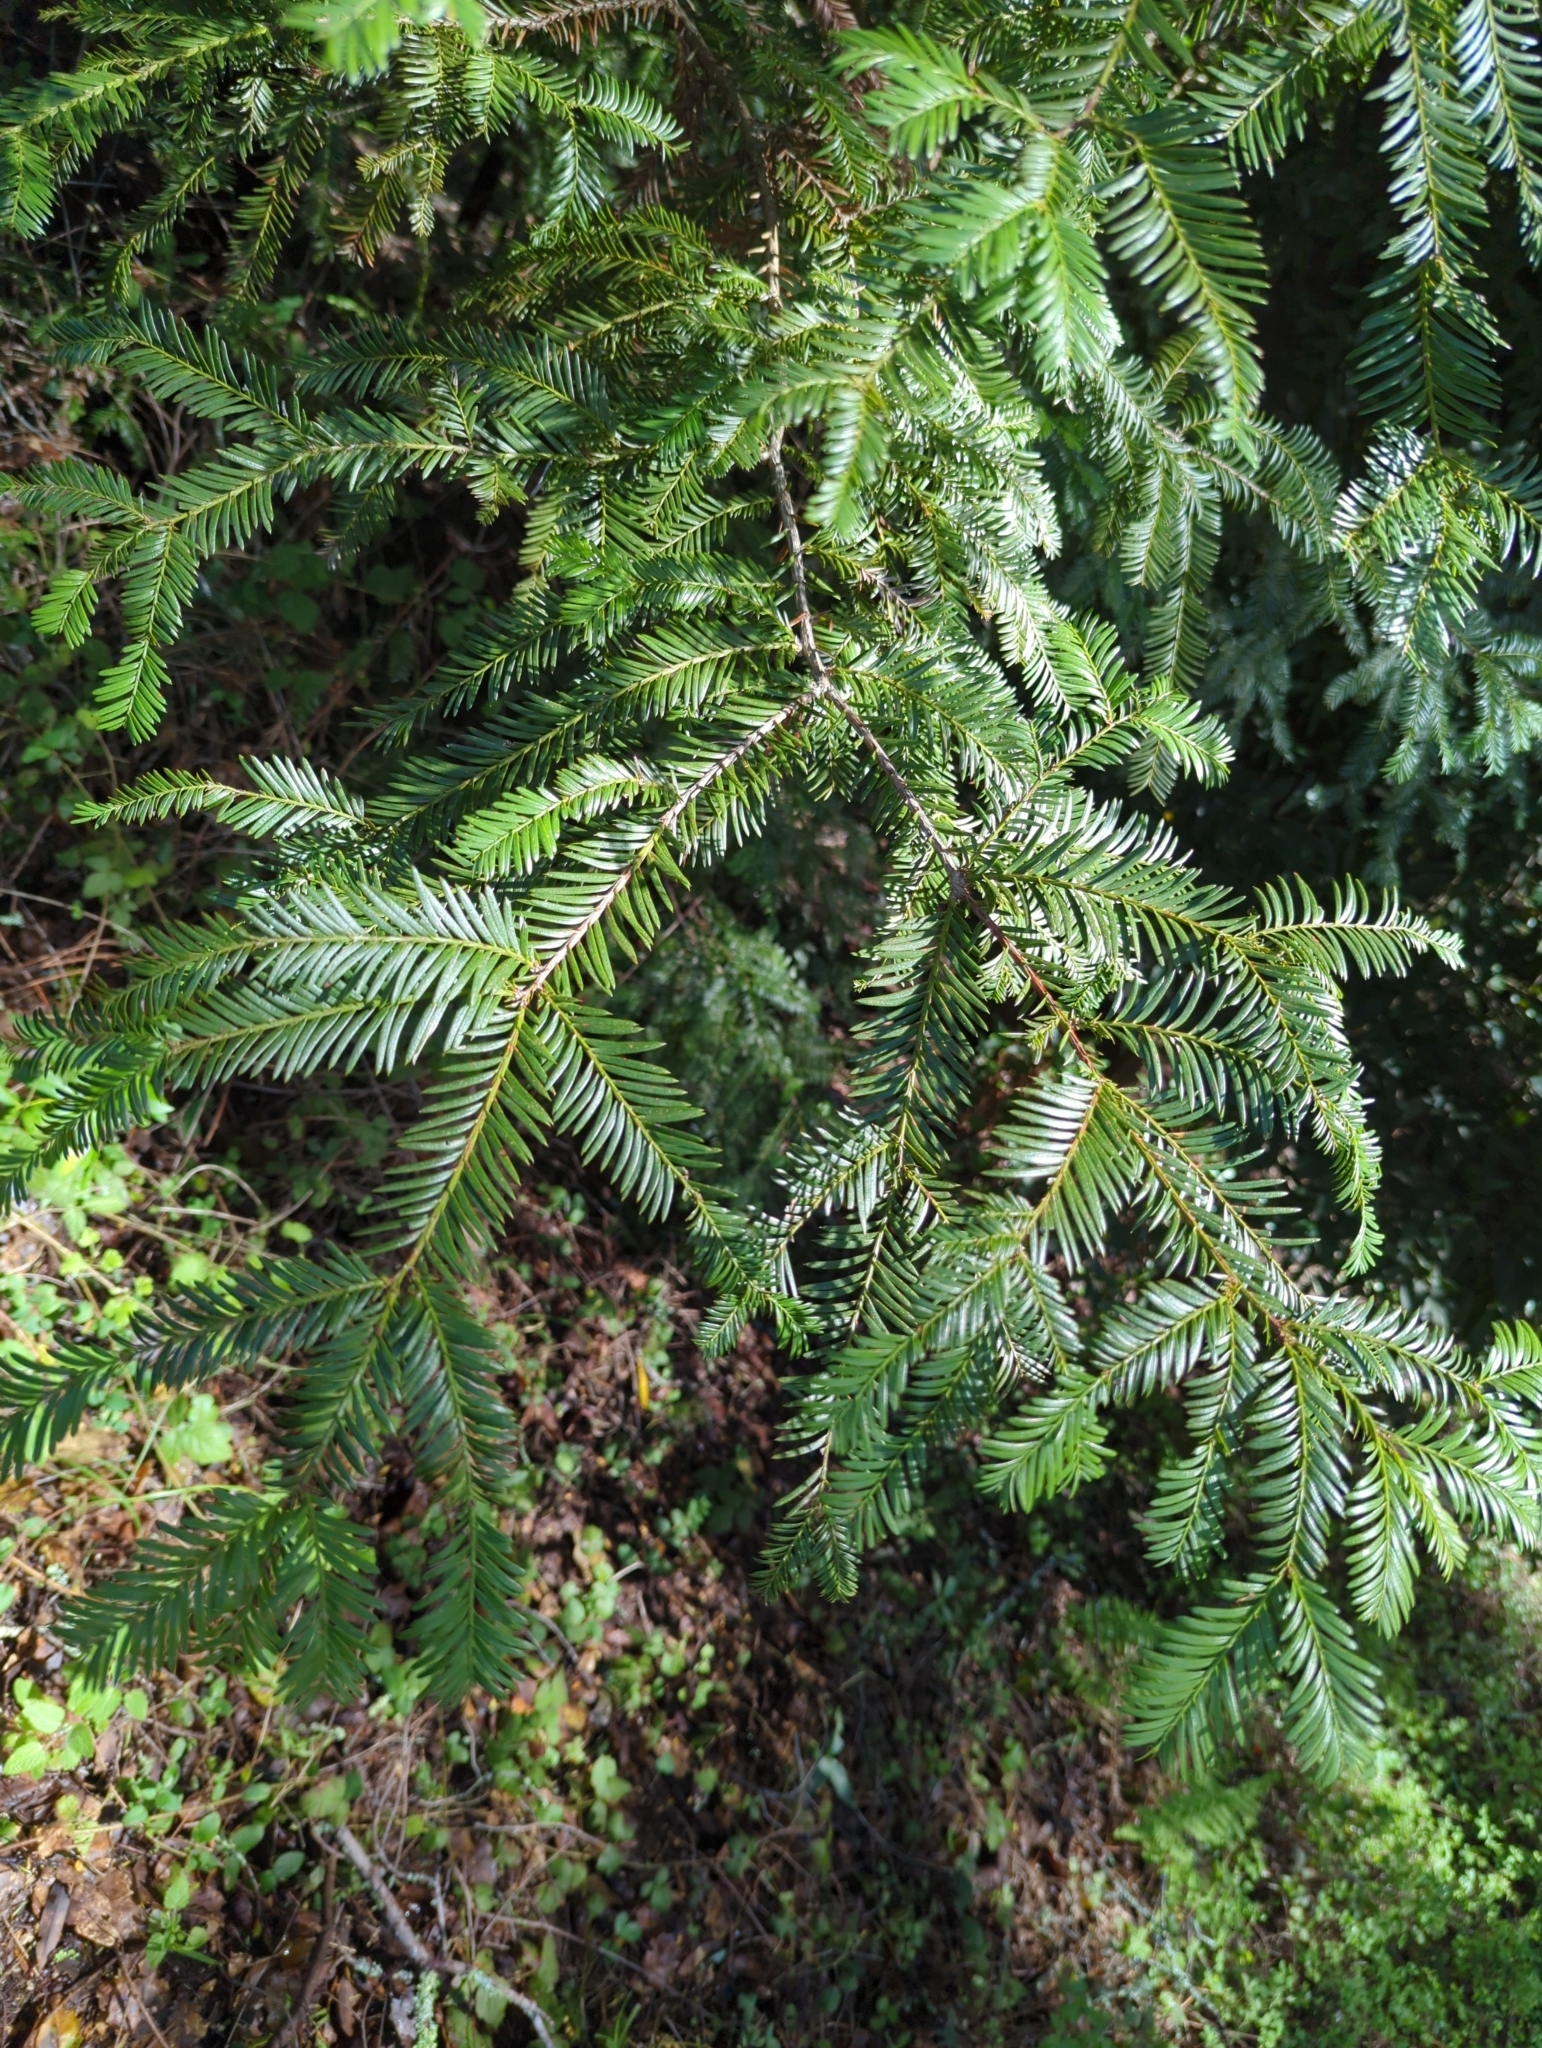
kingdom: Plantae
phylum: Tracheophyta
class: Pinopsida
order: Pinales
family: Cupressaceae
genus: Sequoia
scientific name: Sequoia sempervirens
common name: Coast redwood
